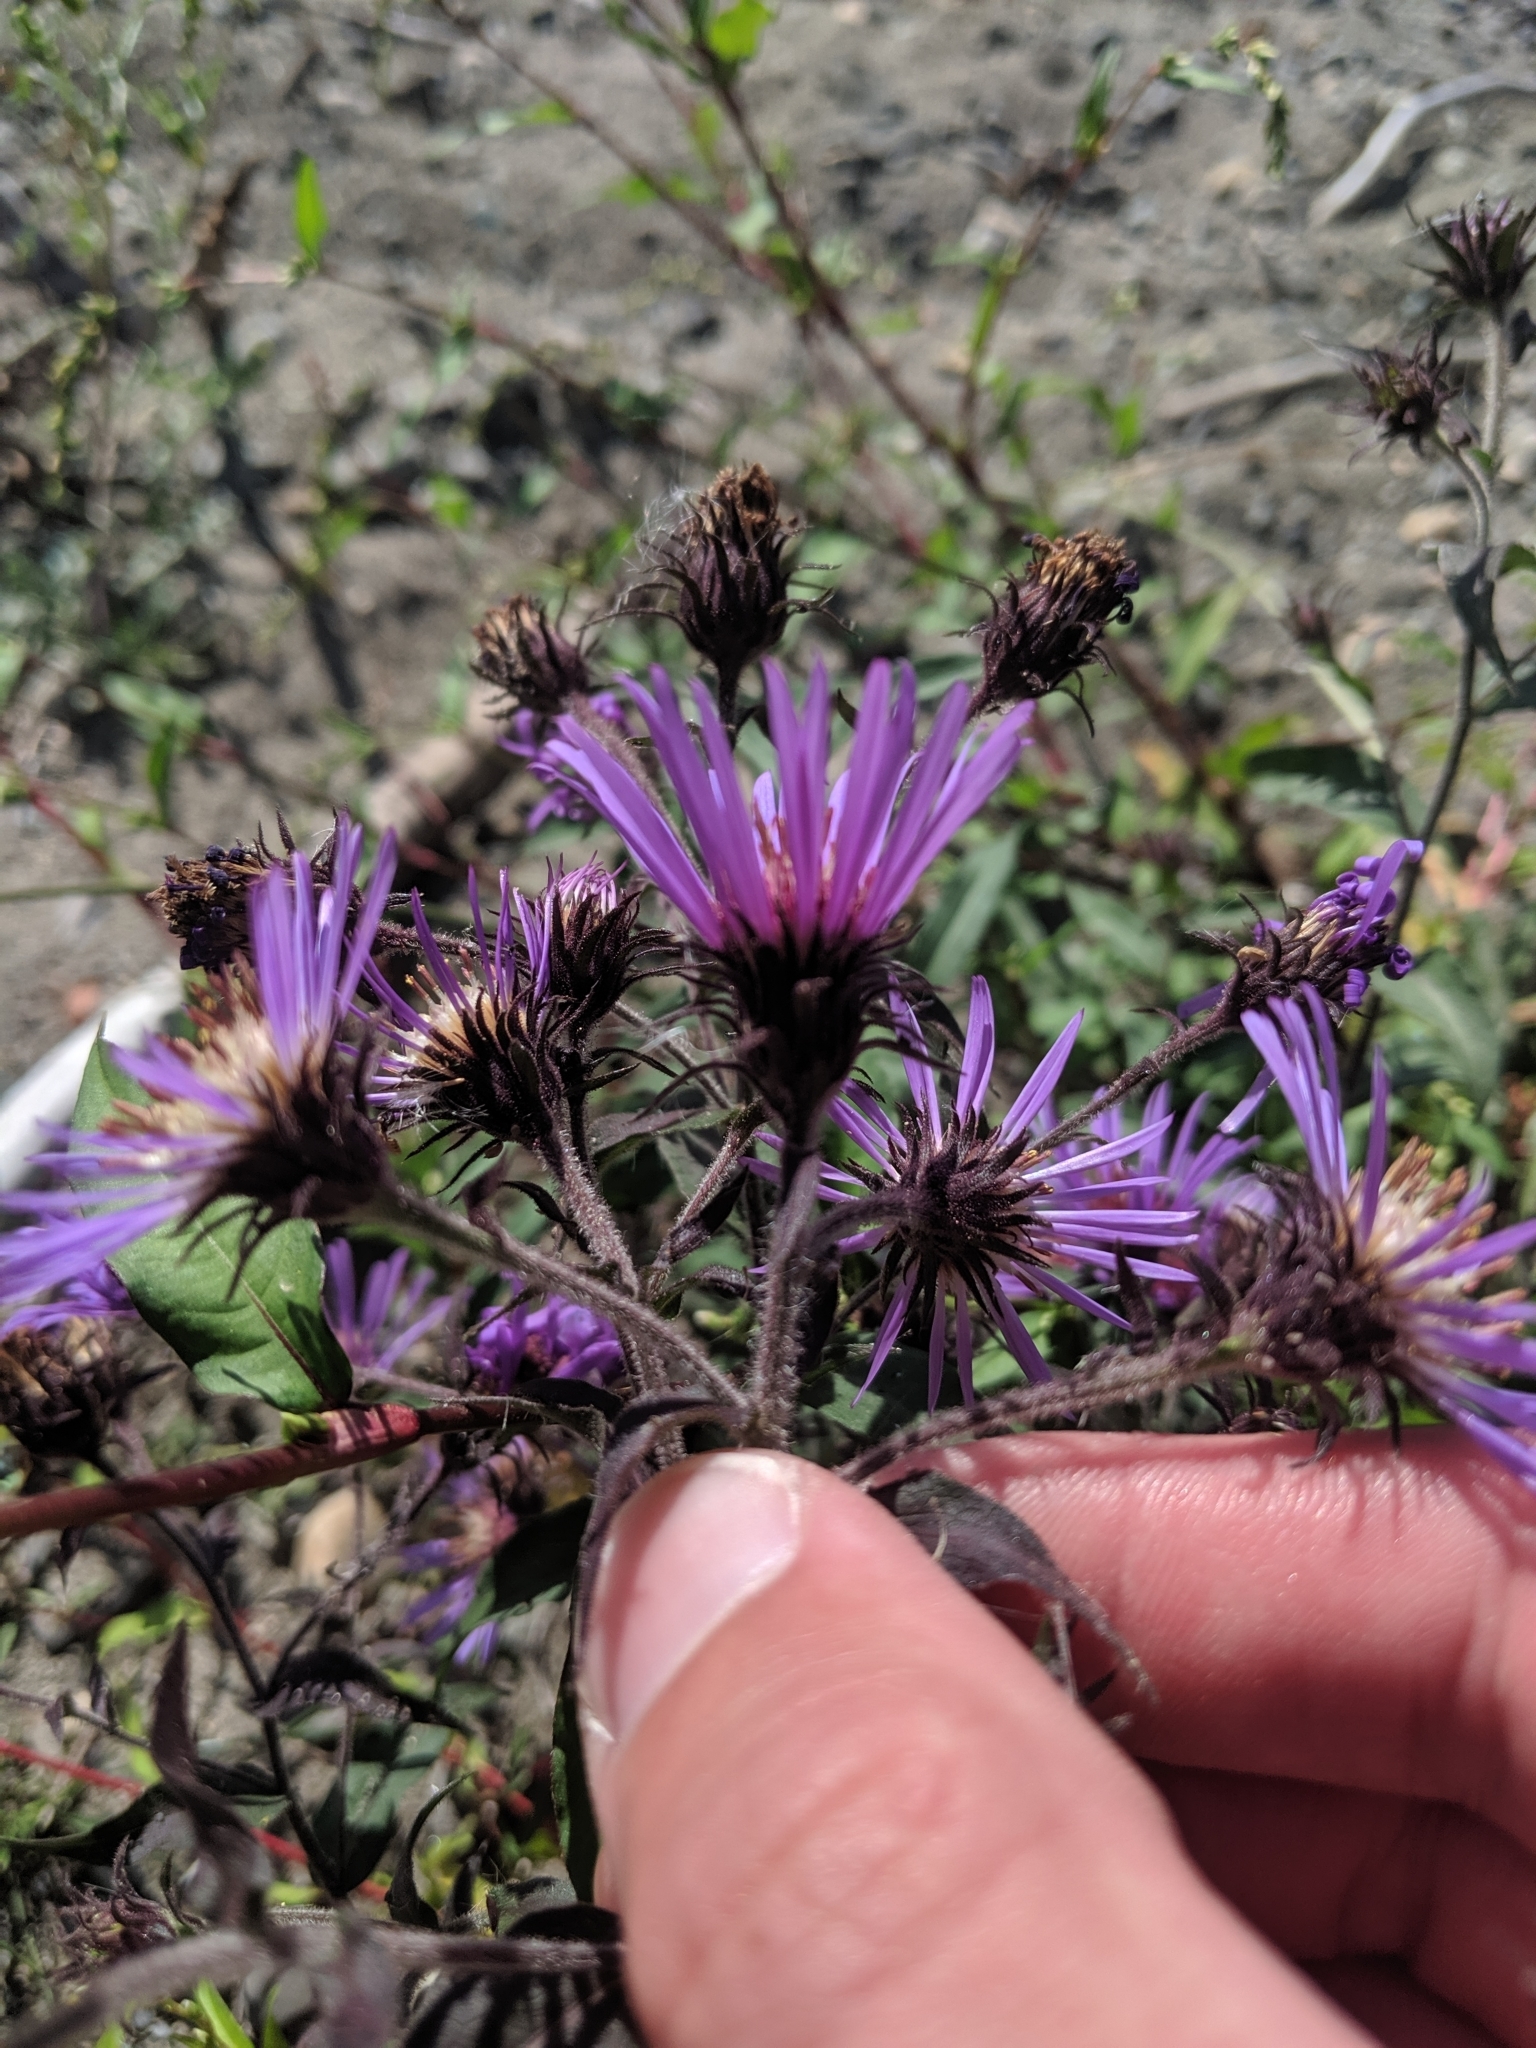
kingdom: Plantae
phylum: Tracheophyta
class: Magnoliopsida
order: Asterales
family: Asteraceae
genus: Canadanthus
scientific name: Canadanthus modestus
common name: Great northern aster
